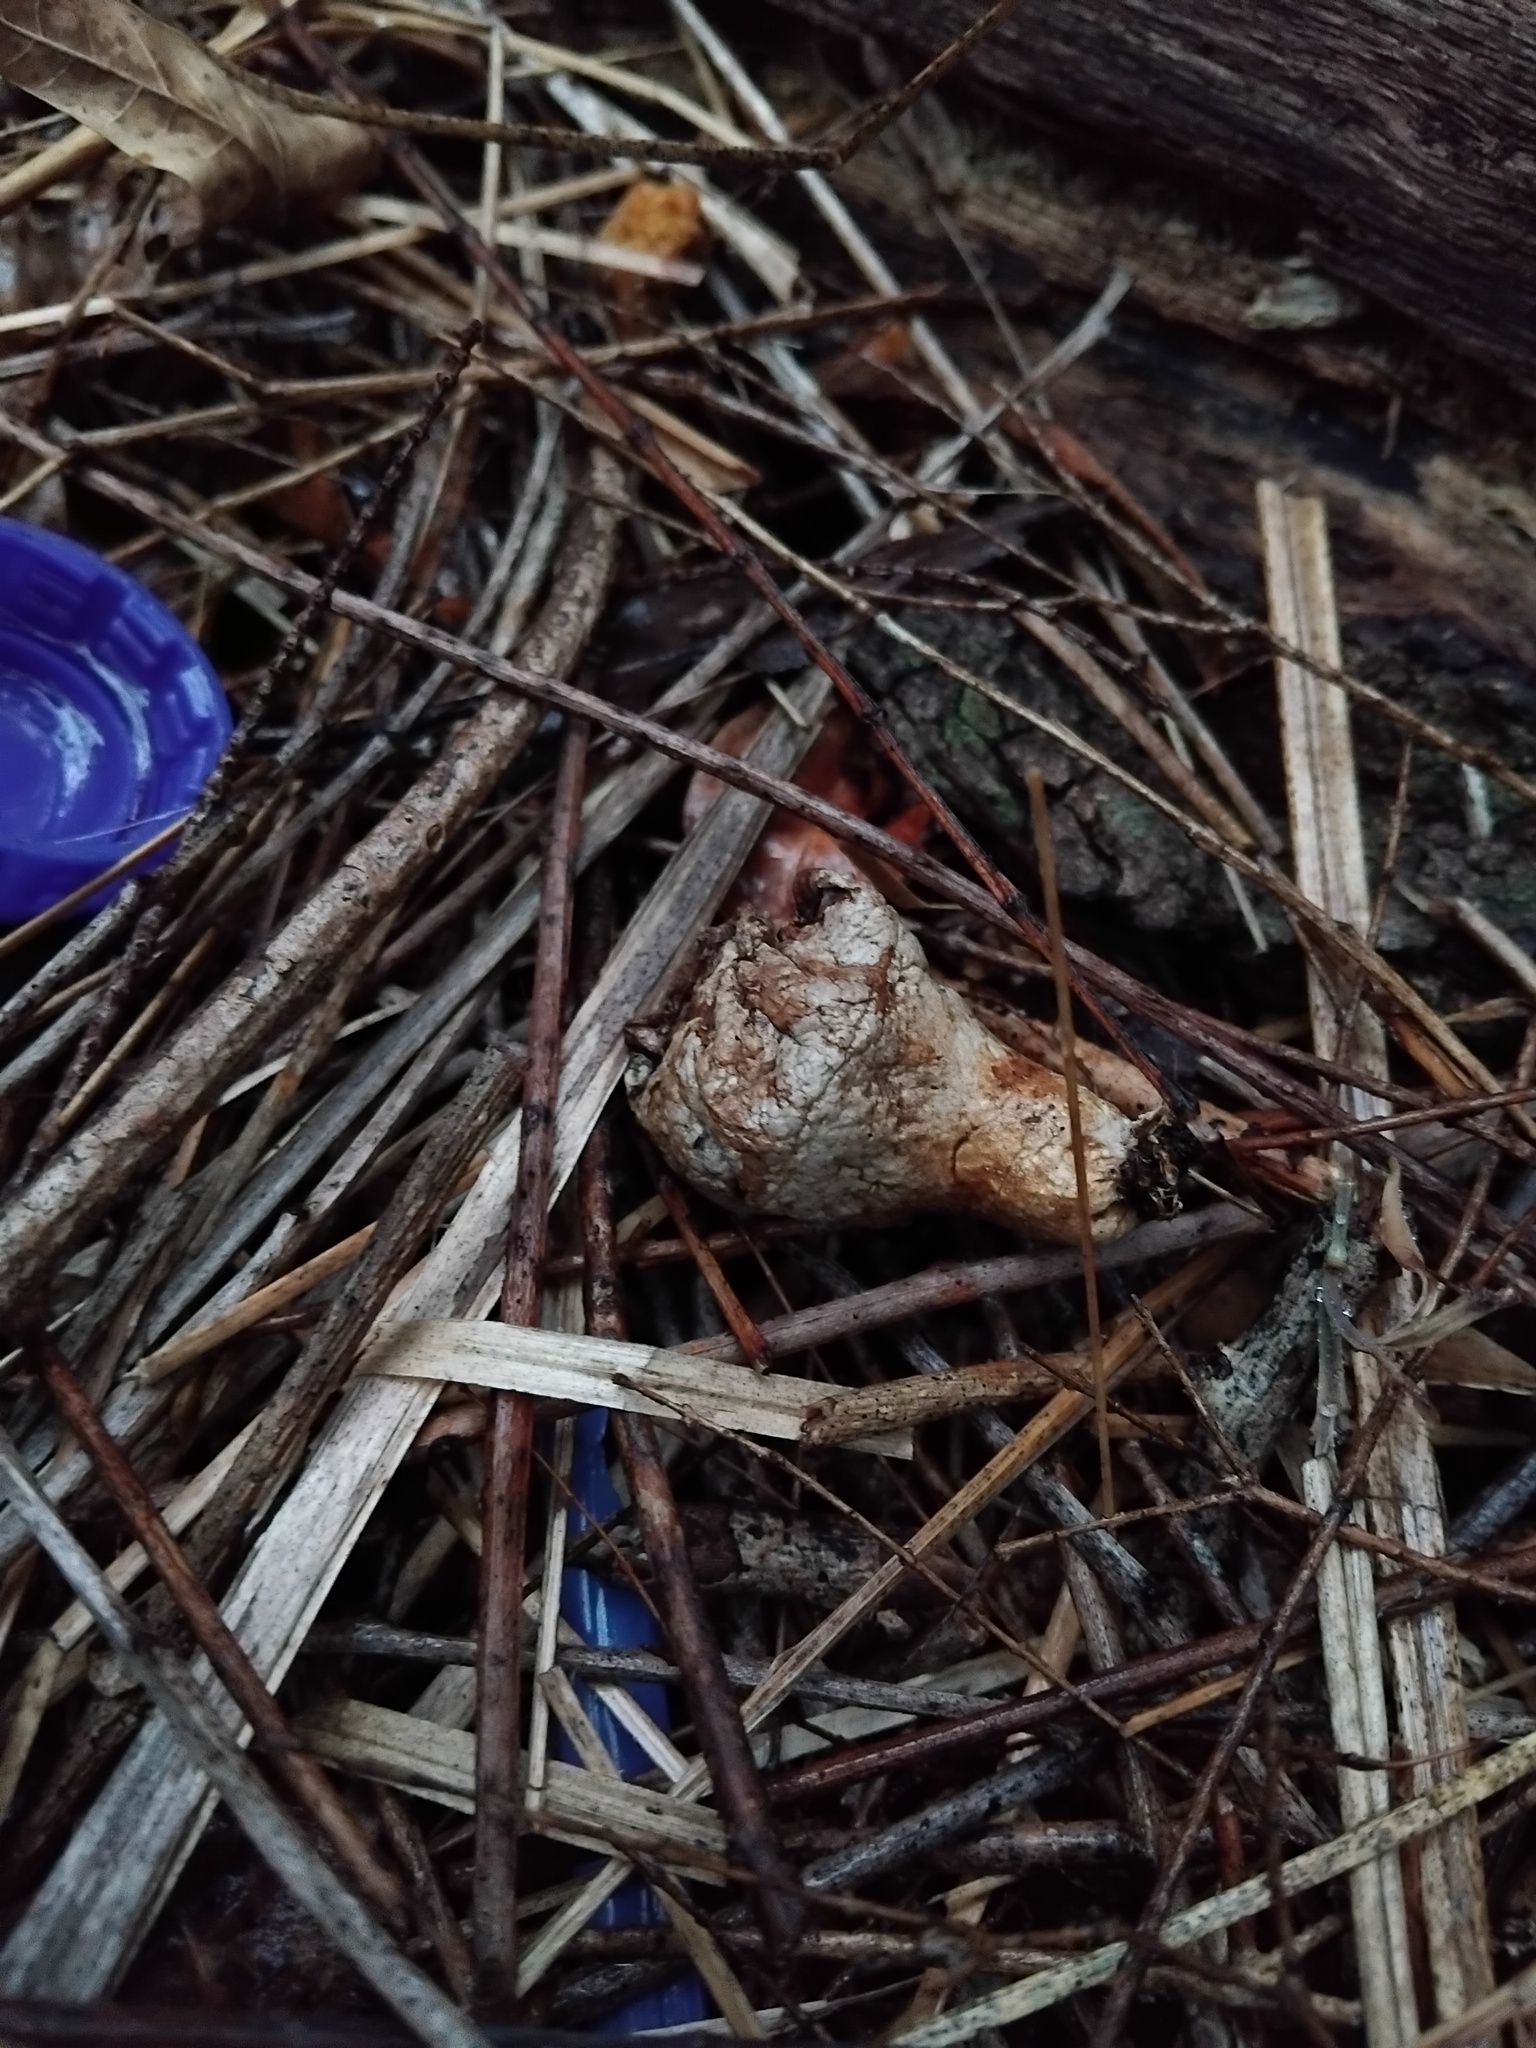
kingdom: Animalia
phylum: Chordata
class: Aves
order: Passeriformes
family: Ptilonorhynchidae
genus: Ptilonorhynchus
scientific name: Ptilonorhynchus violaceus
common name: Satin bowerbird
